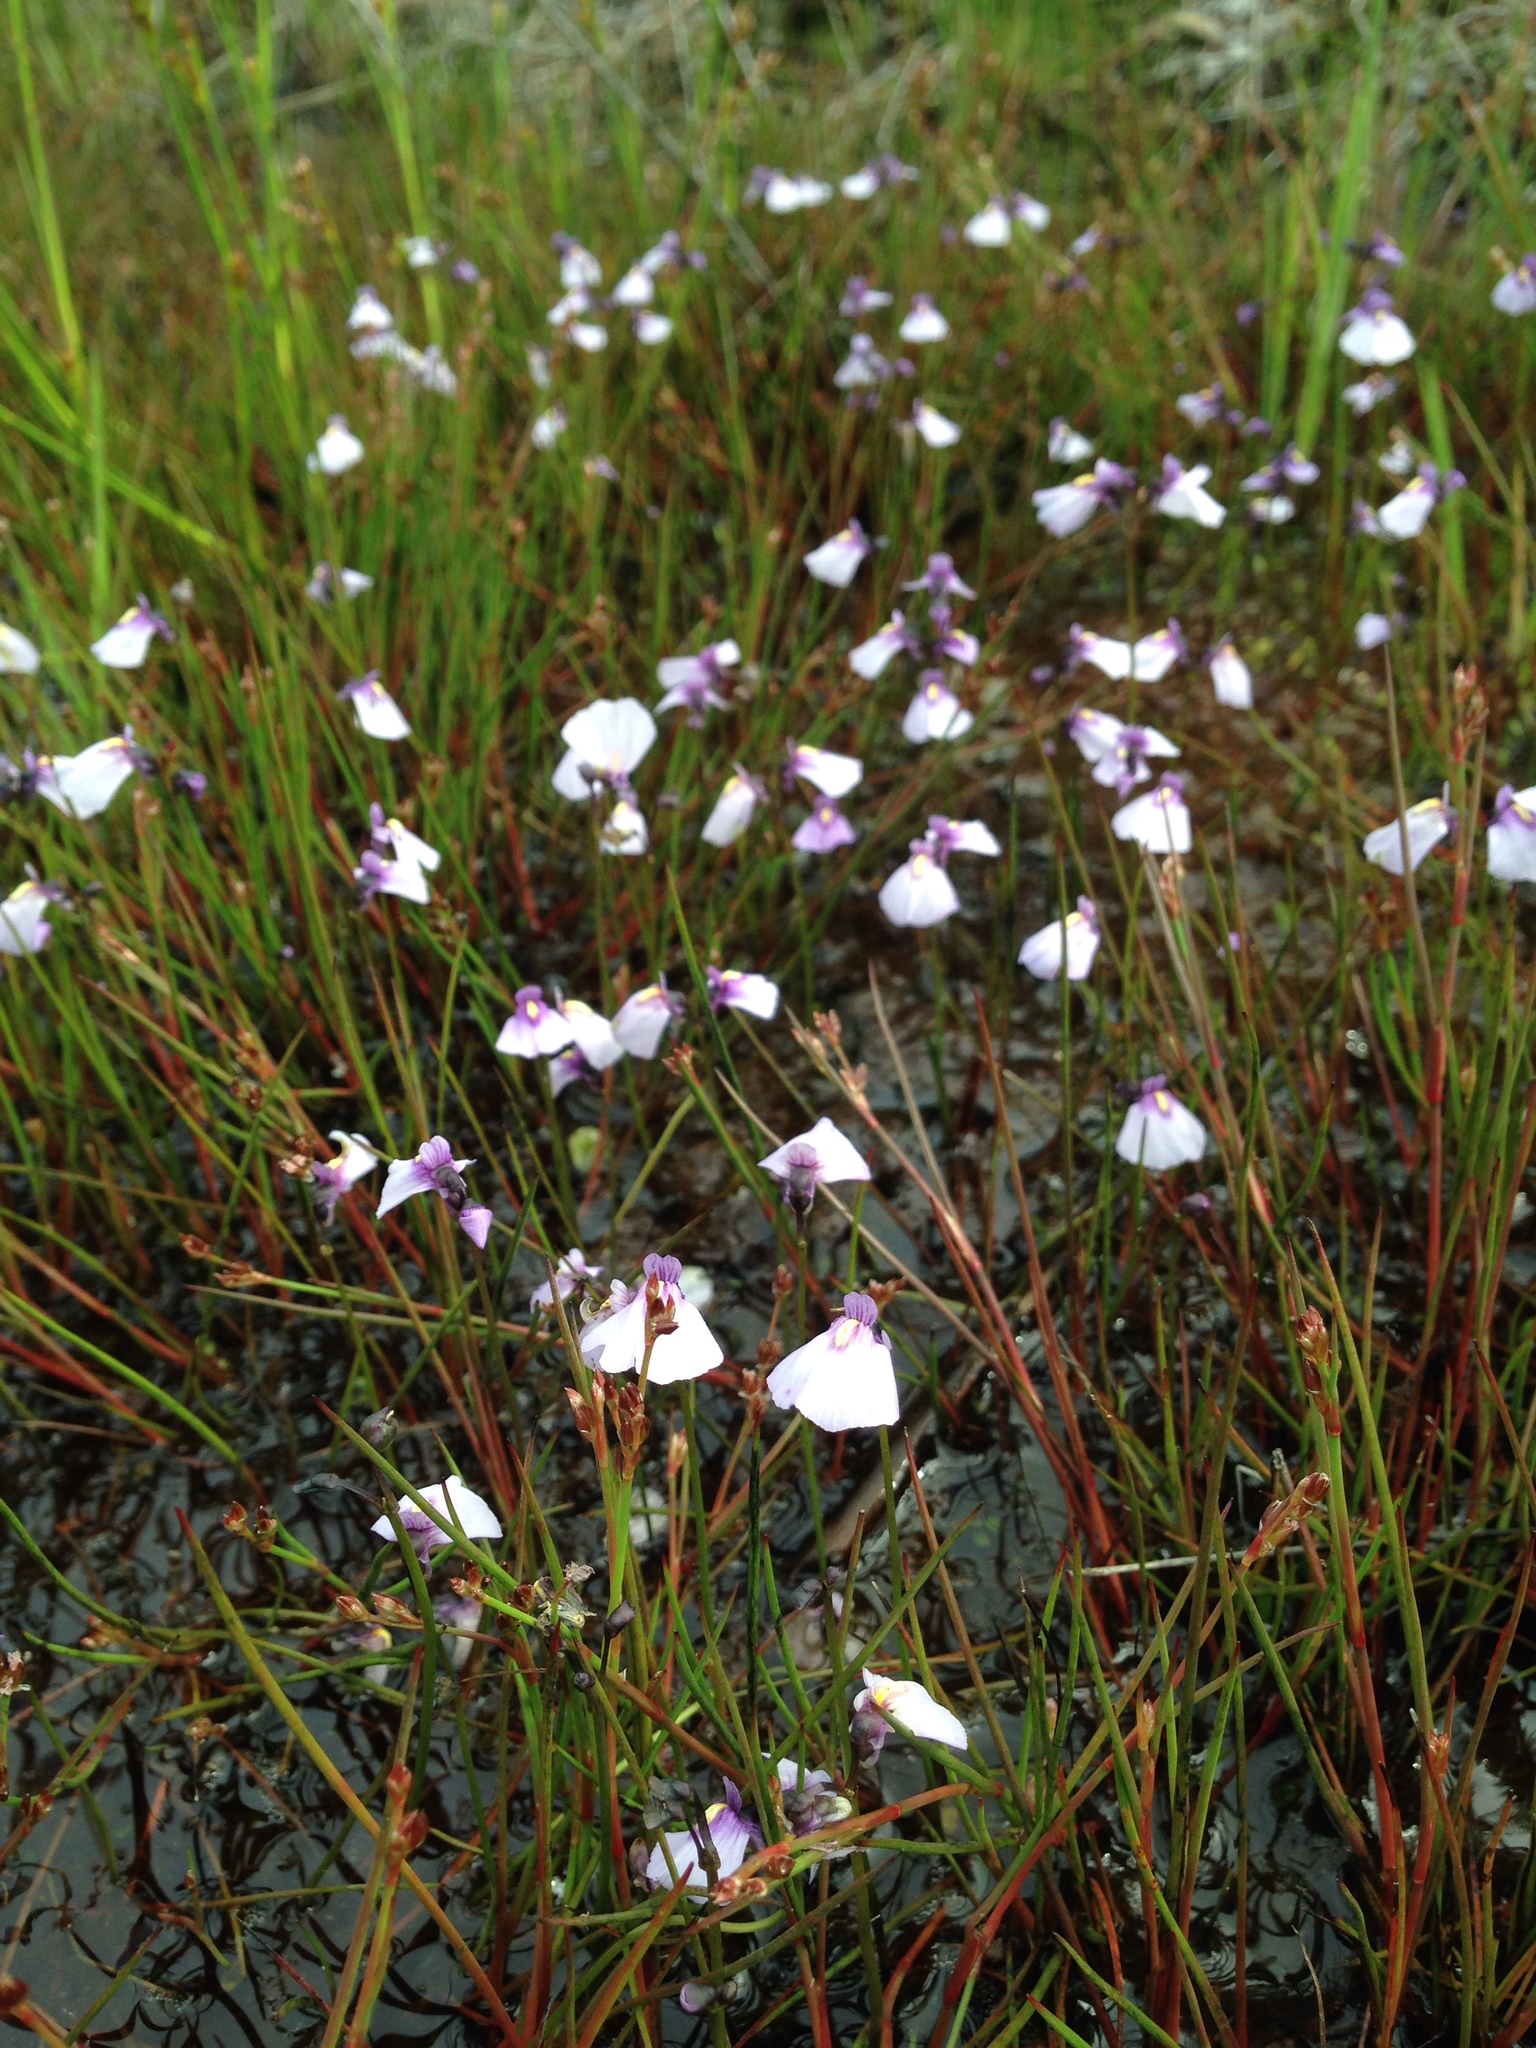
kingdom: Plantae
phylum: Tracheophyta
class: Magnoliopsida
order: Lamiales
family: Lentibulariaceae
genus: Utricularia
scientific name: Utricularia dichotoma
